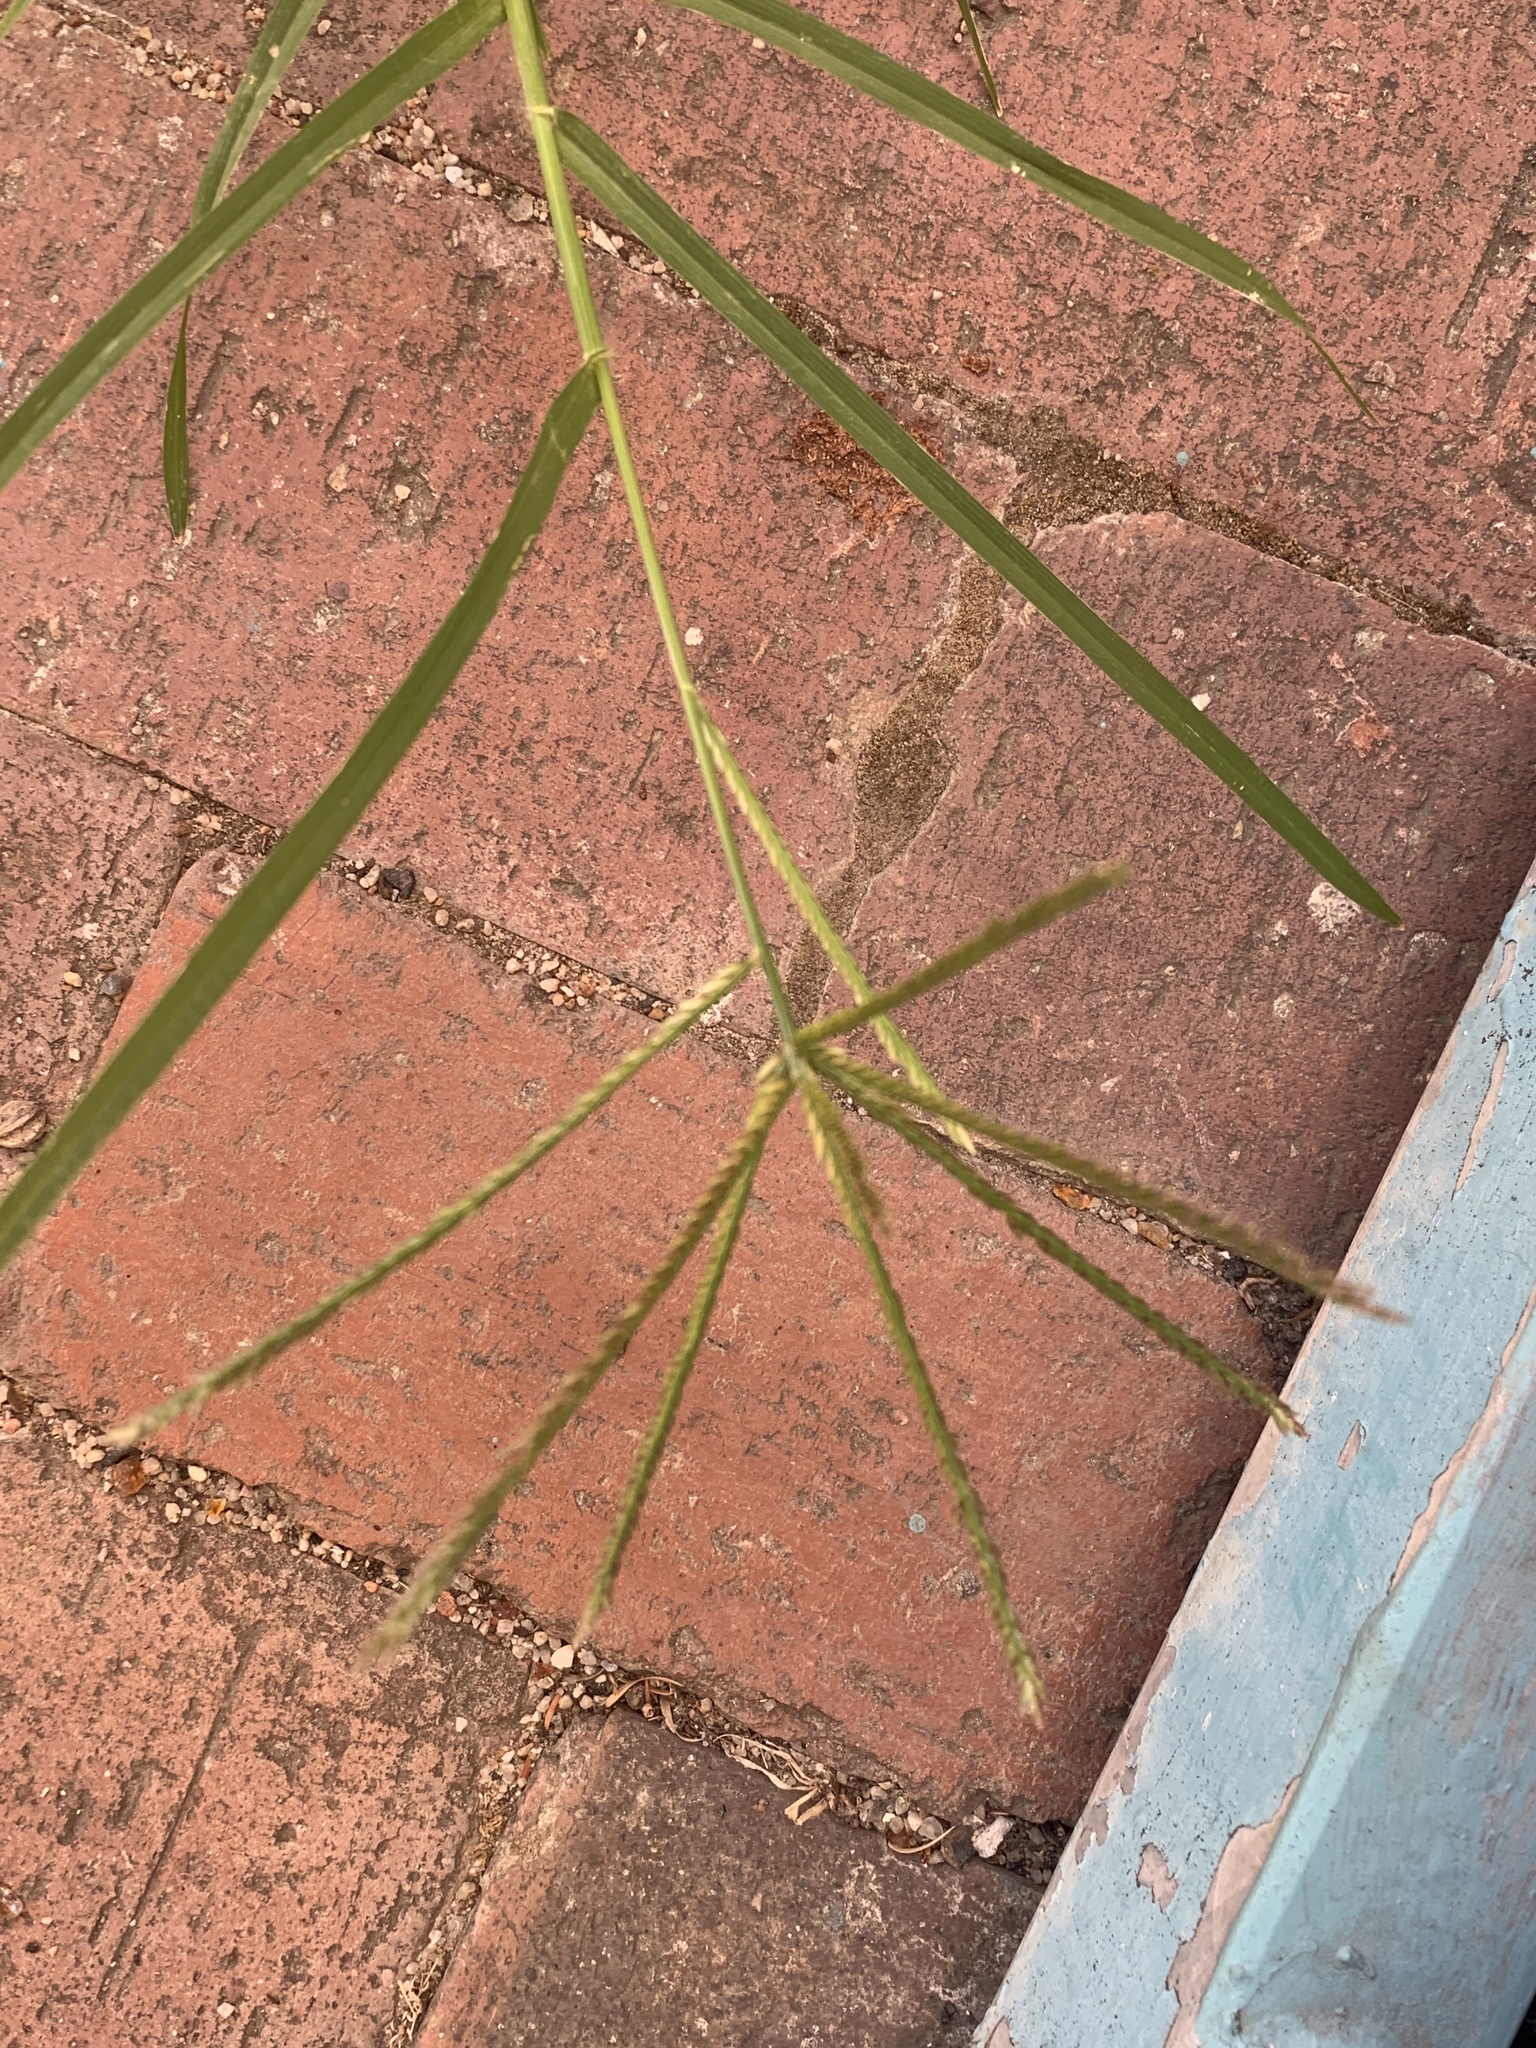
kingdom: Plantae
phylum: Tracheophyta
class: Liliopsida
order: Poales
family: Poaceae
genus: Eleusine
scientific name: Eleusine indica
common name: Yard-grass
